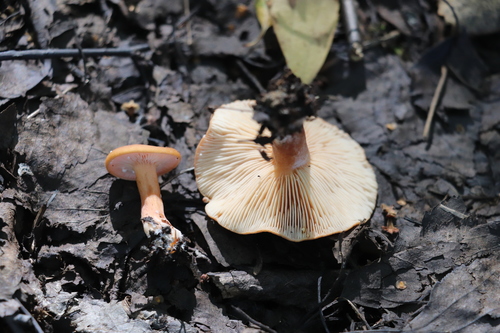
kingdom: Fungi
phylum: Basidiomycota
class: Agaricomycetes
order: Russulales
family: Russulaceae
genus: Lactarius
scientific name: Lactarius aurantiacus
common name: Orange milkcap
